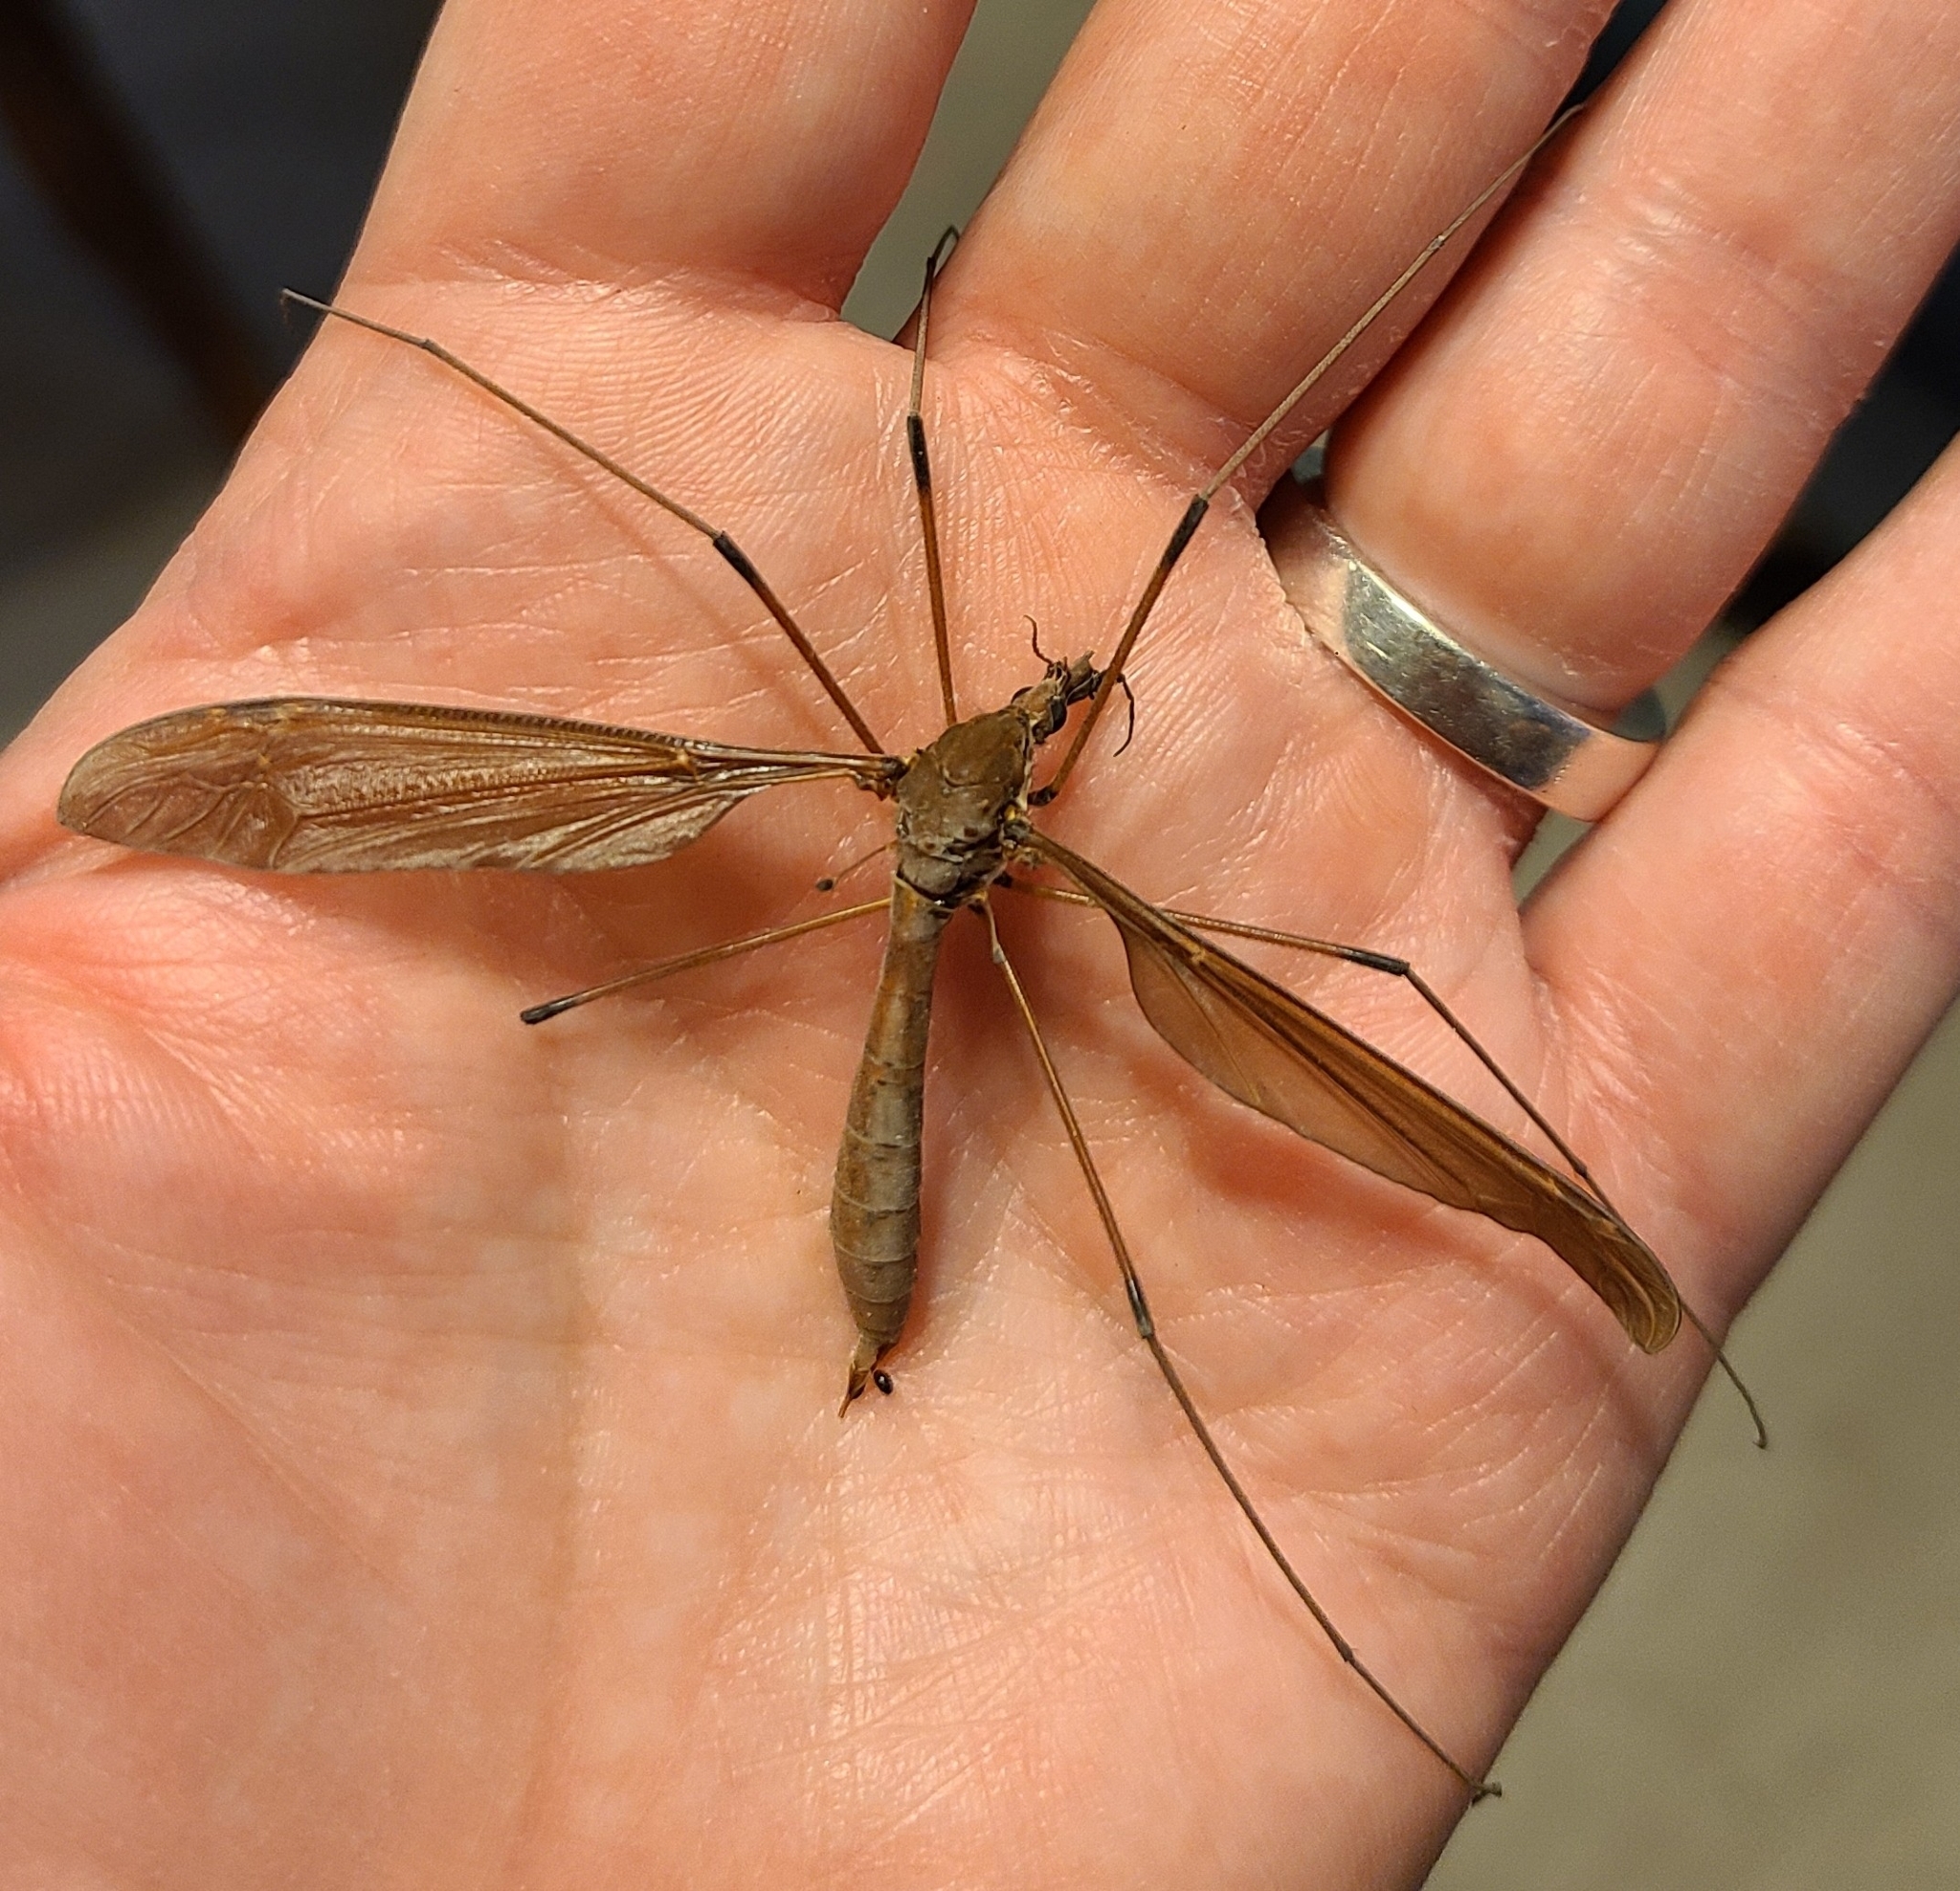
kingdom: Animalia
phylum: Arthropoda
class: Insecta
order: Diptera
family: Tipulidae
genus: Holorusia
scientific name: Holorusia hespera
